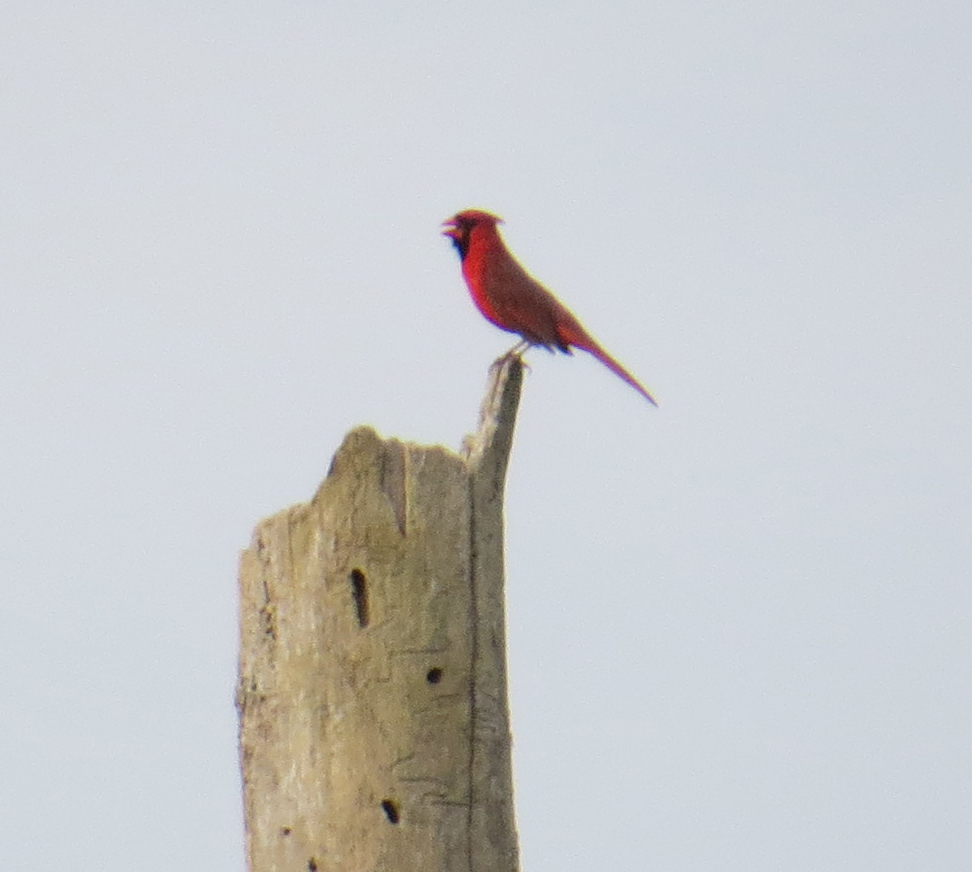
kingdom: Animalia
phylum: Chordata
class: Aves
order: Passeriformes
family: Cardinalidae
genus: Cardinalis
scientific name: Cardinalis cardinalis
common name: Northern cardinal
